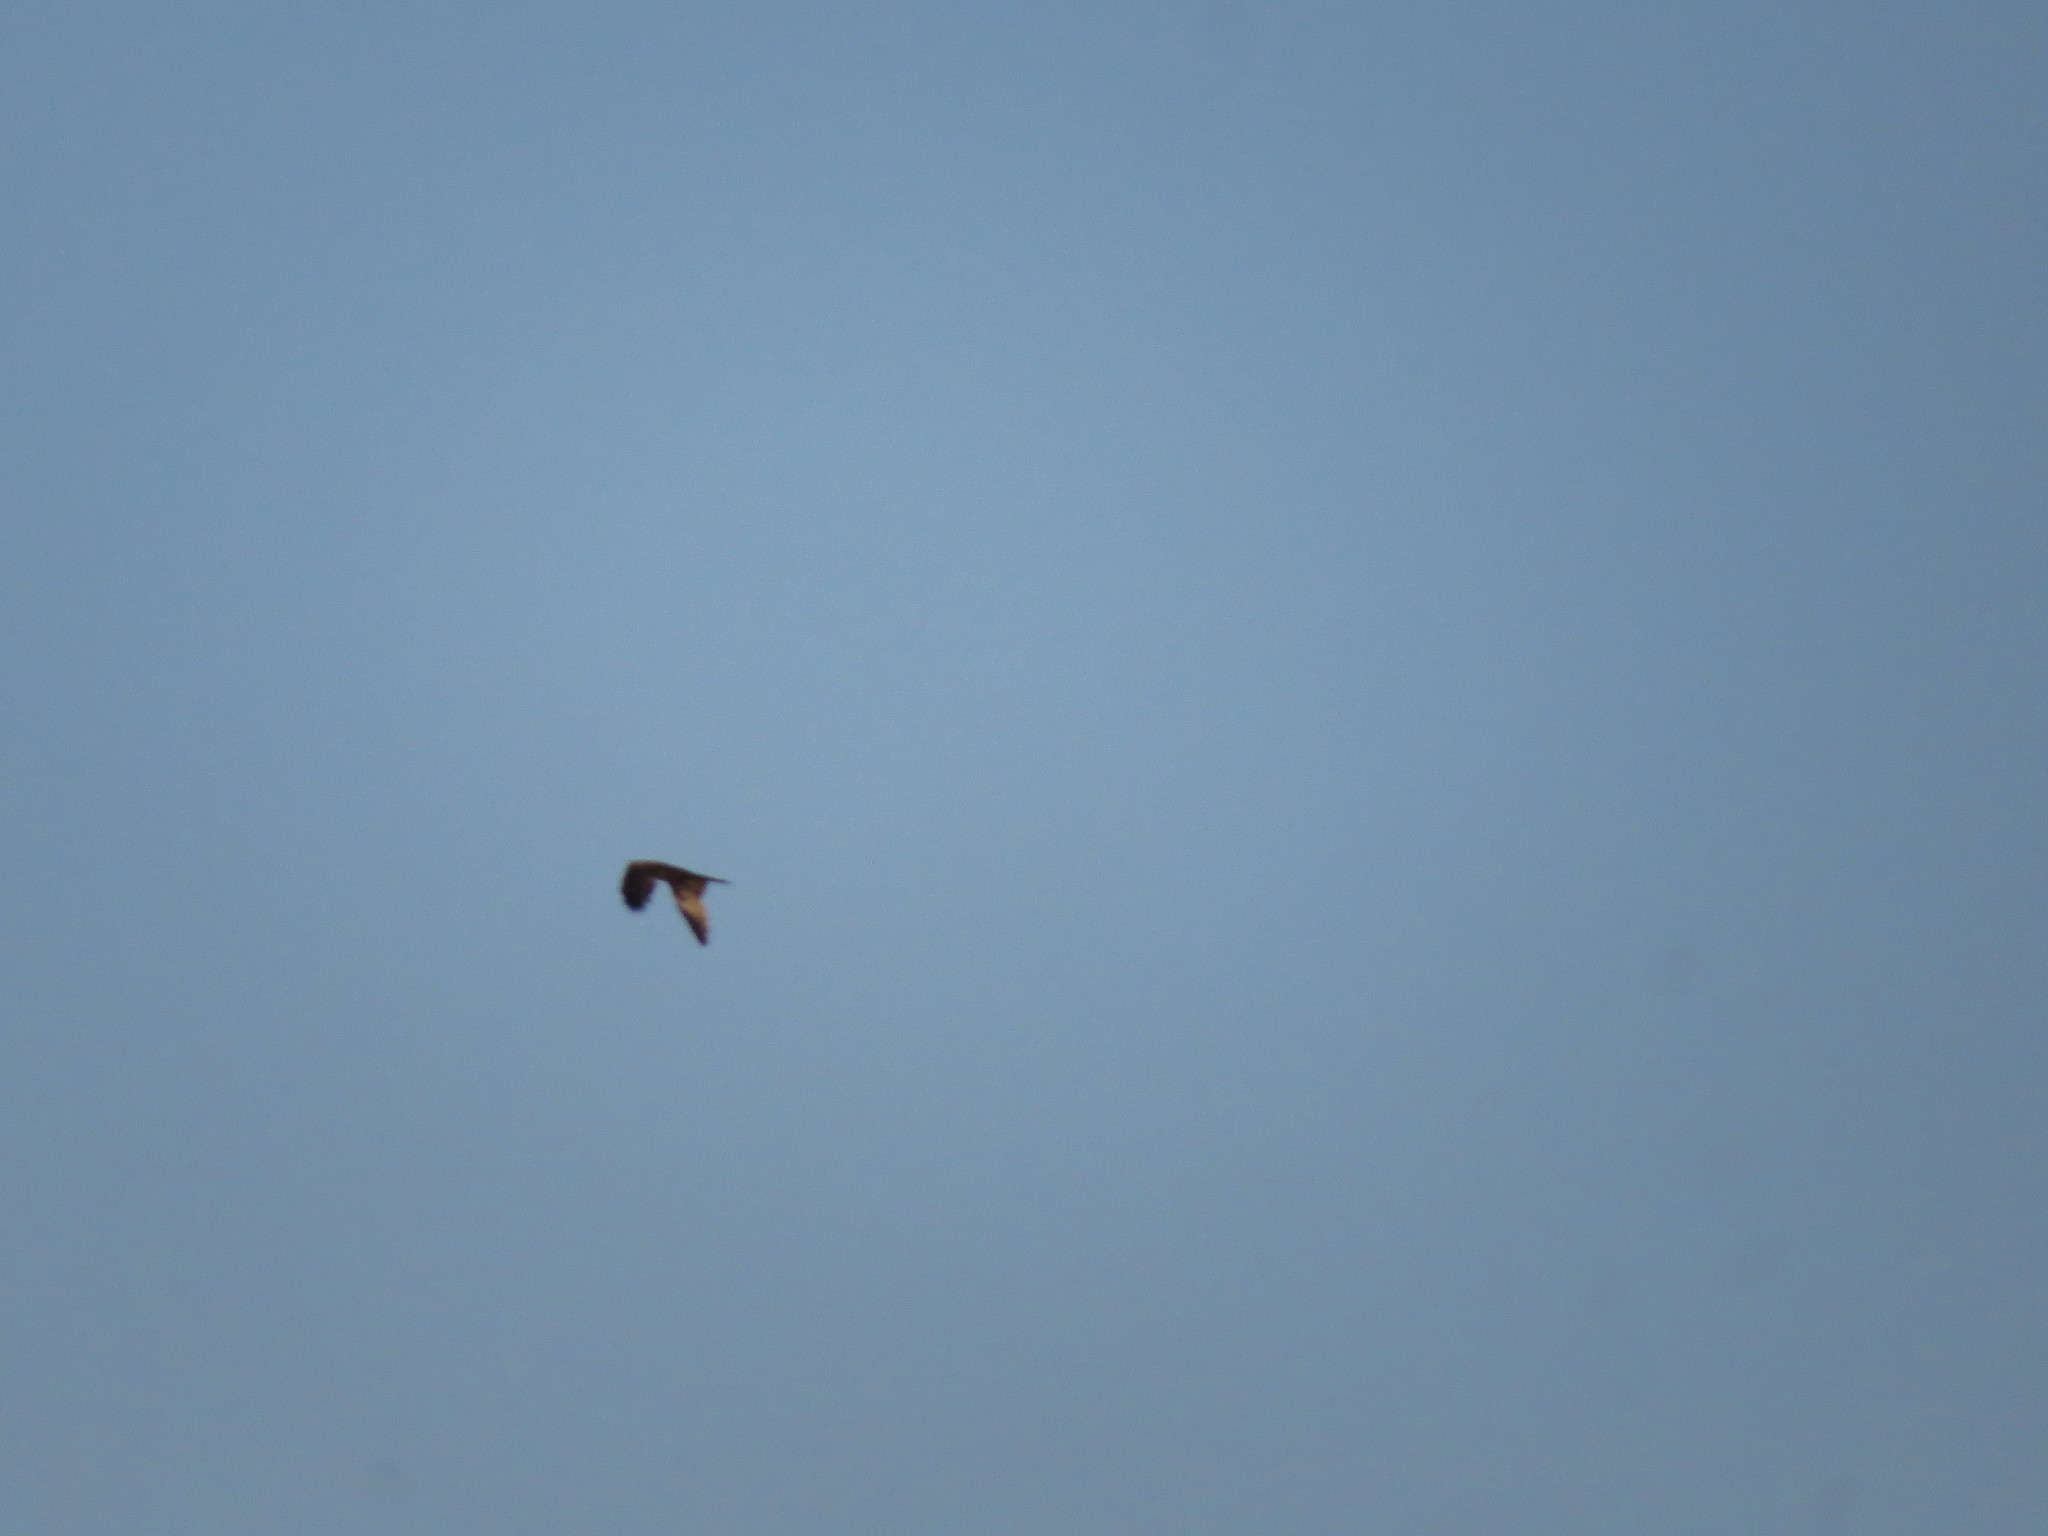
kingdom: Animalia
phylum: Chordata
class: Aves
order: Accipitriformes
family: Accipitridae
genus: Milvus
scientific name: Milvus migrans
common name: Black kite
